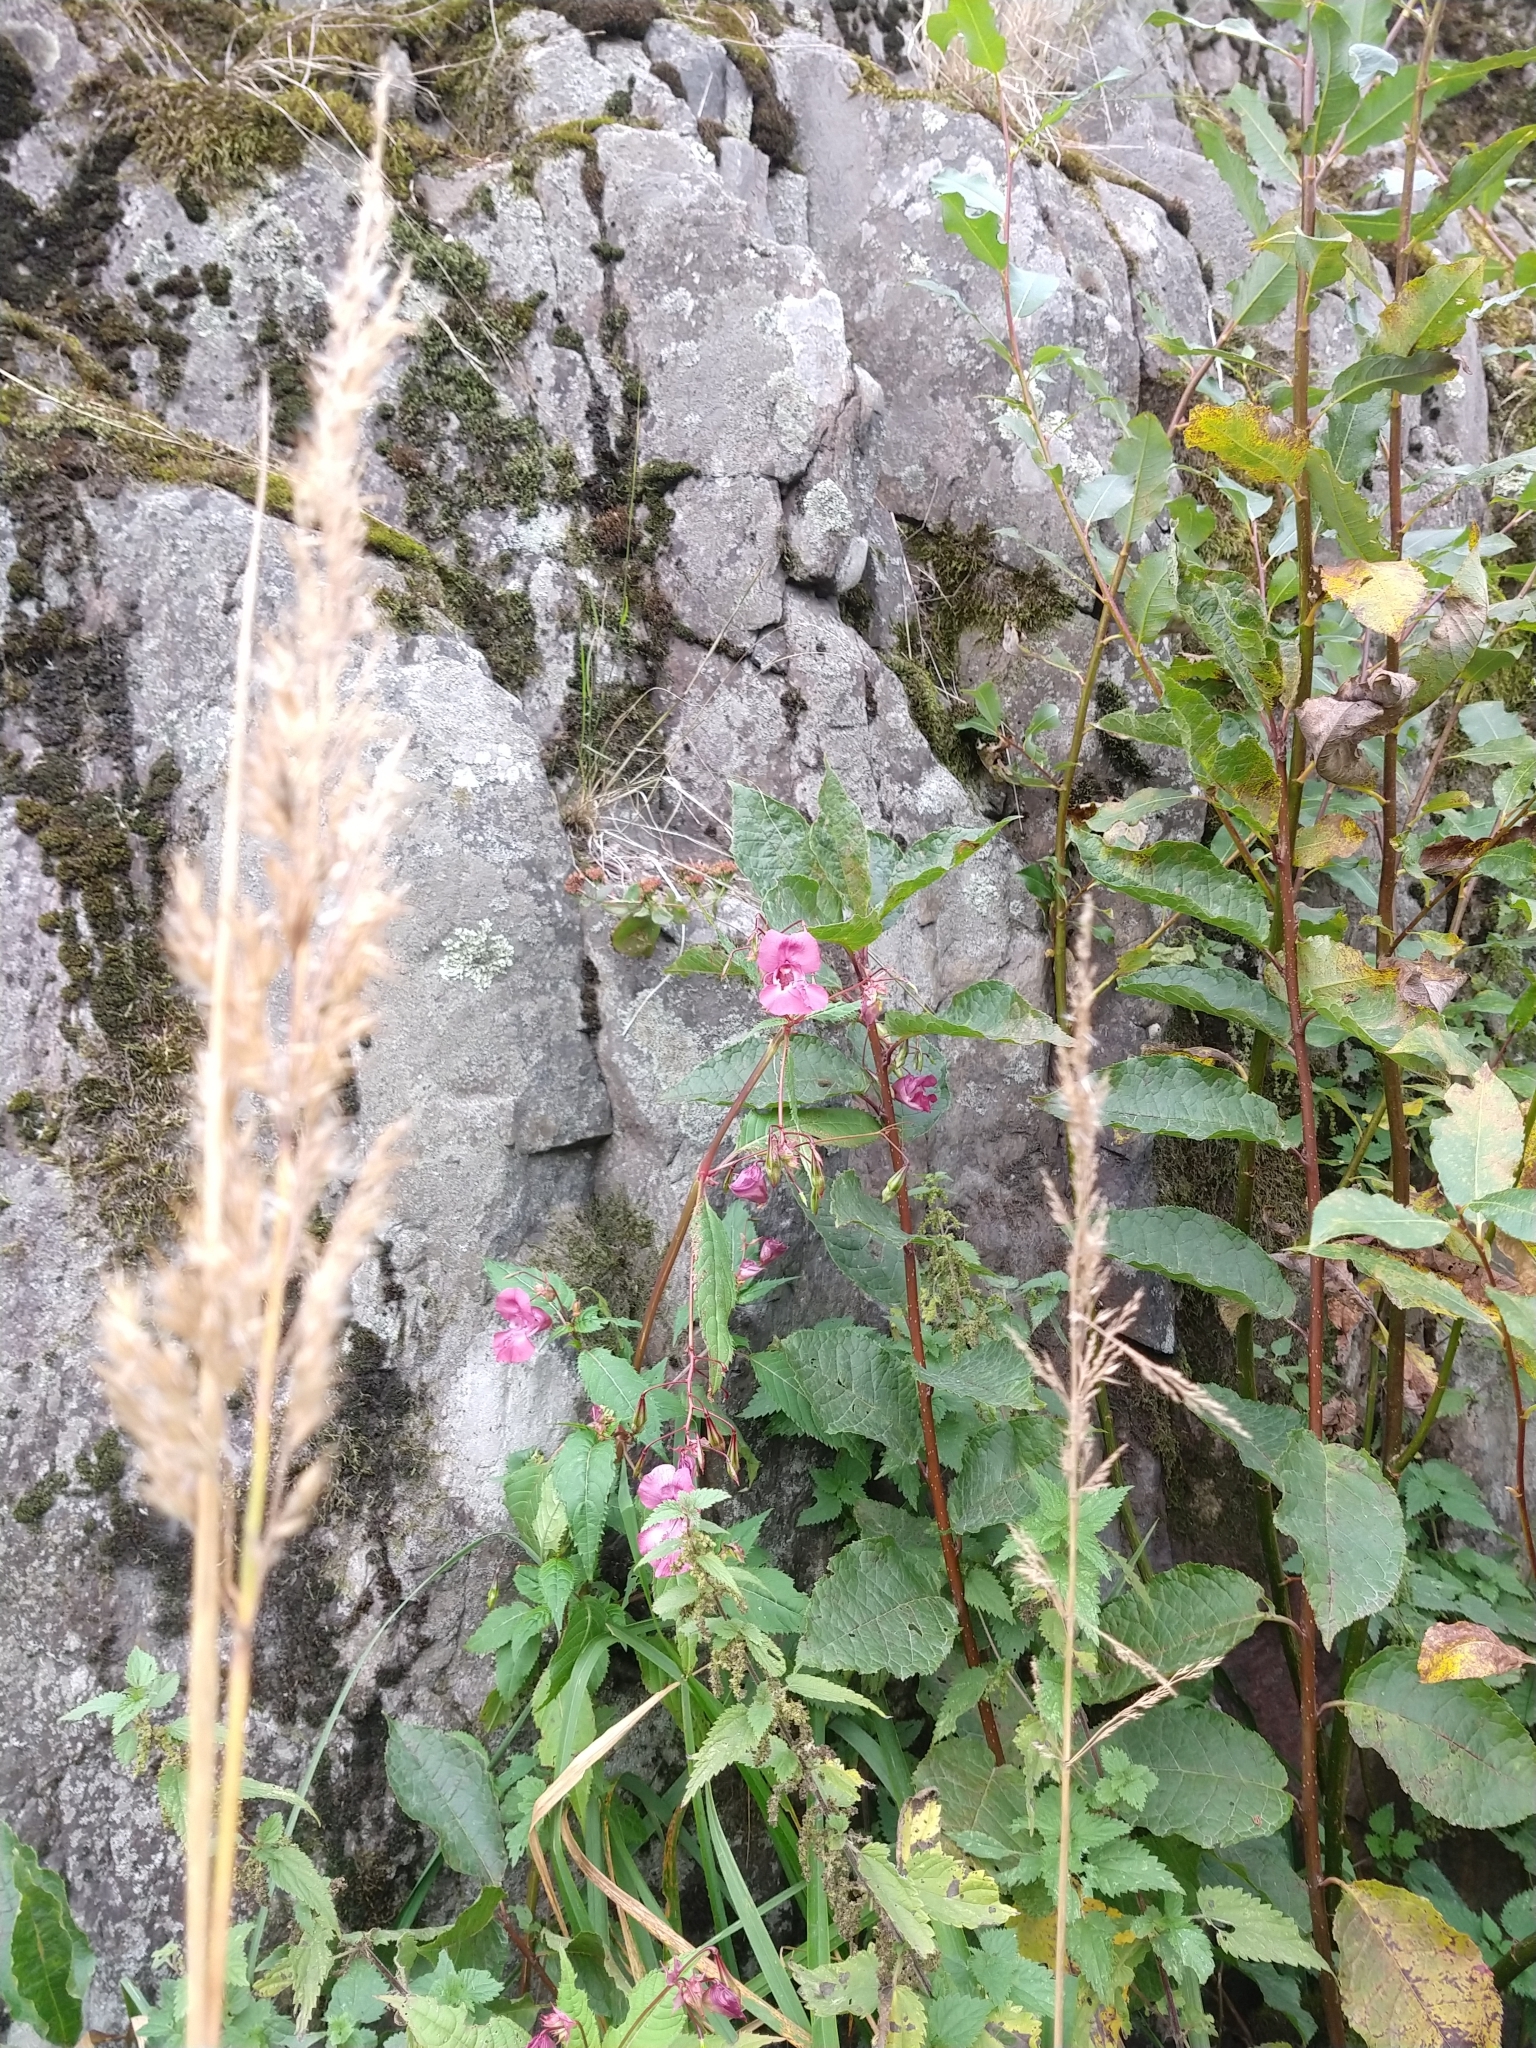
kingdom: Plantae
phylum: Tracheophyta
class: Magnoliopsida
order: Ericales
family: Balsaminaceae
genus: Impatiens
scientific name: Impatiens glandulifera
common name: Himalayan balsam
